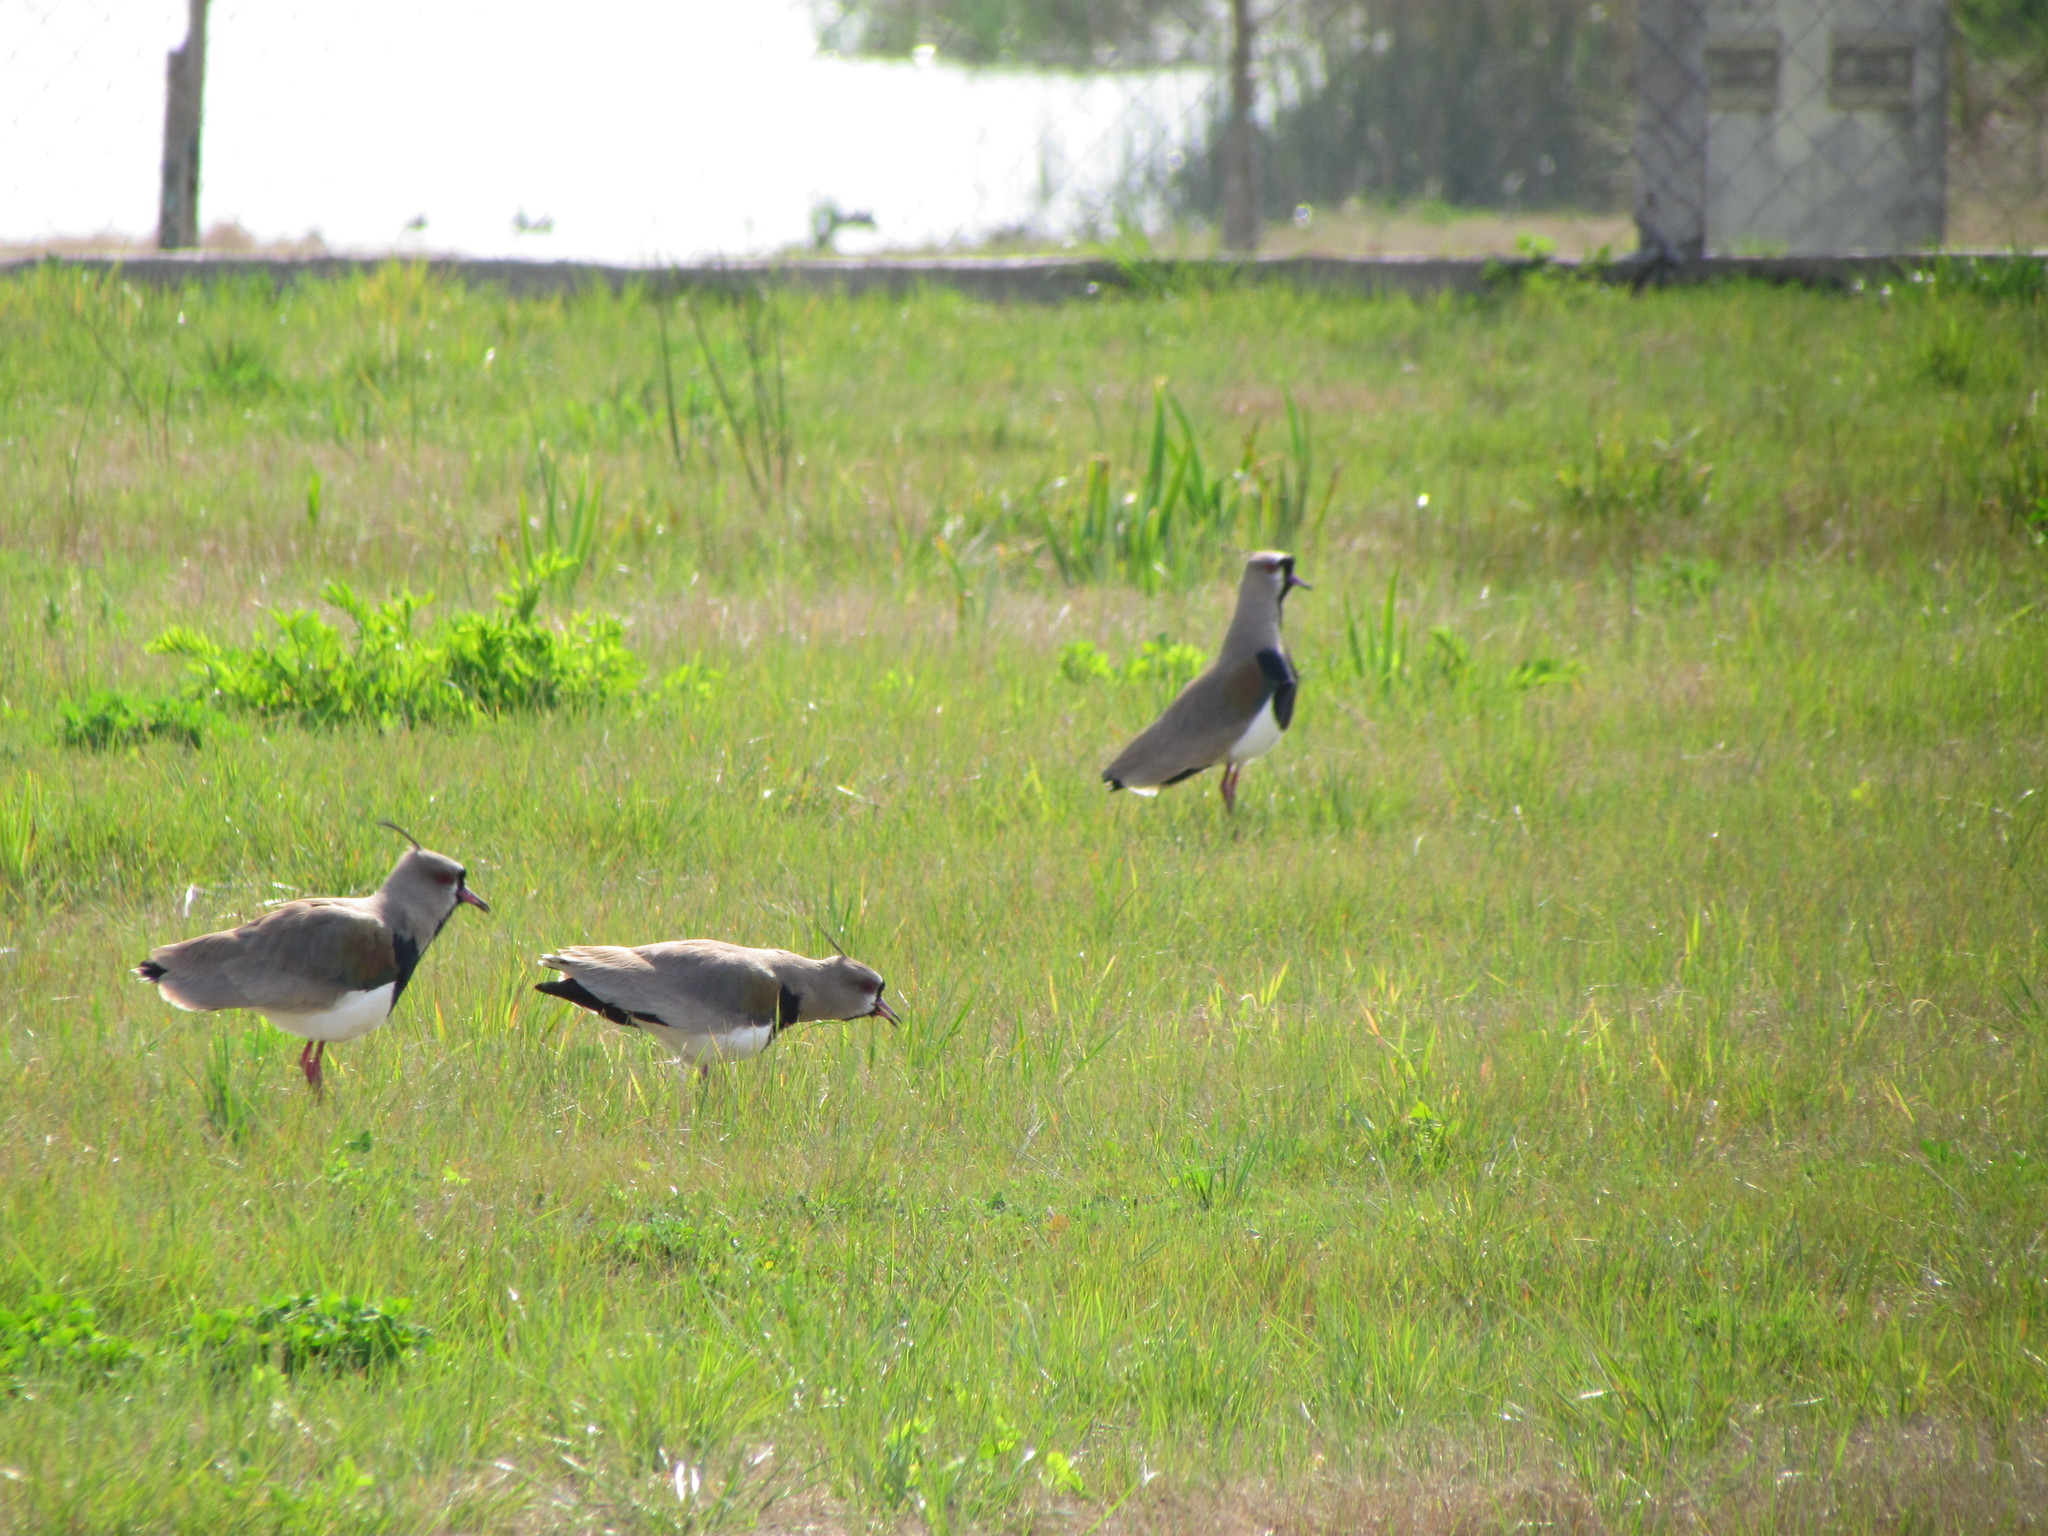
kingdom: Animalia
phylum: Chordata
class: Aves
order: Charadriiformes
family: Charadriidae
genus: Vanellus
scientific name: Vanellus chilensis
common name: Southern lapwing
